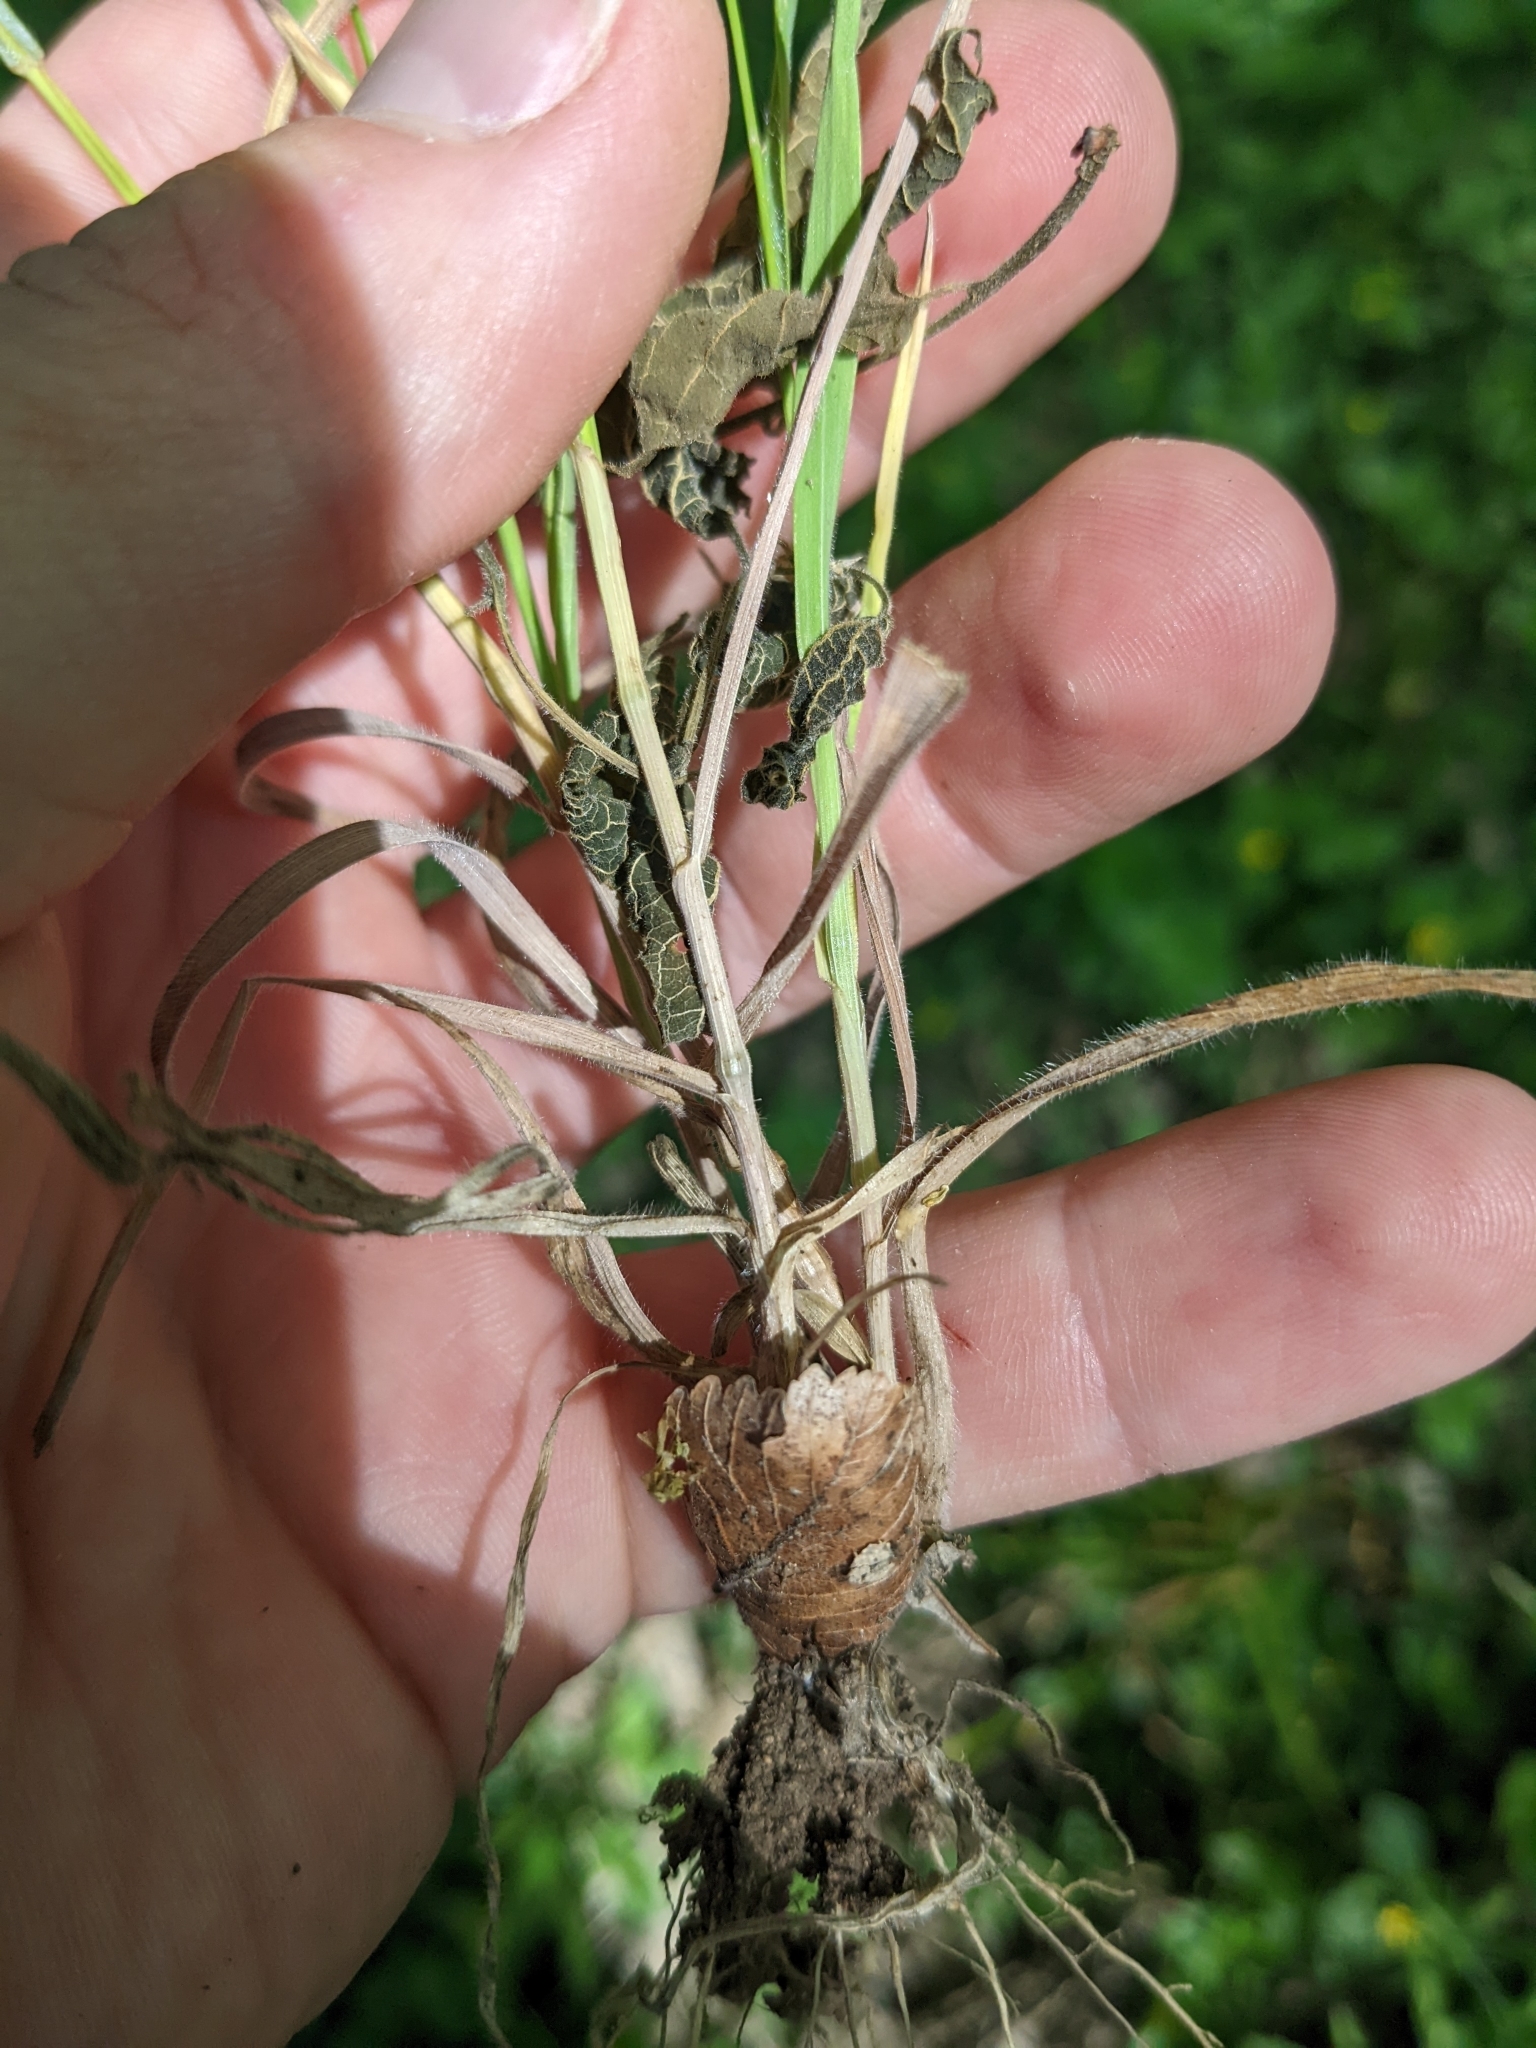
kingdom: Plantae
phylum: Tracheophyta
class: Liliopsida
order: Poales
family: Poaceae
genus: Bromus
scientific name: Bromus lanceolatus
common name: Mediterranean brome
